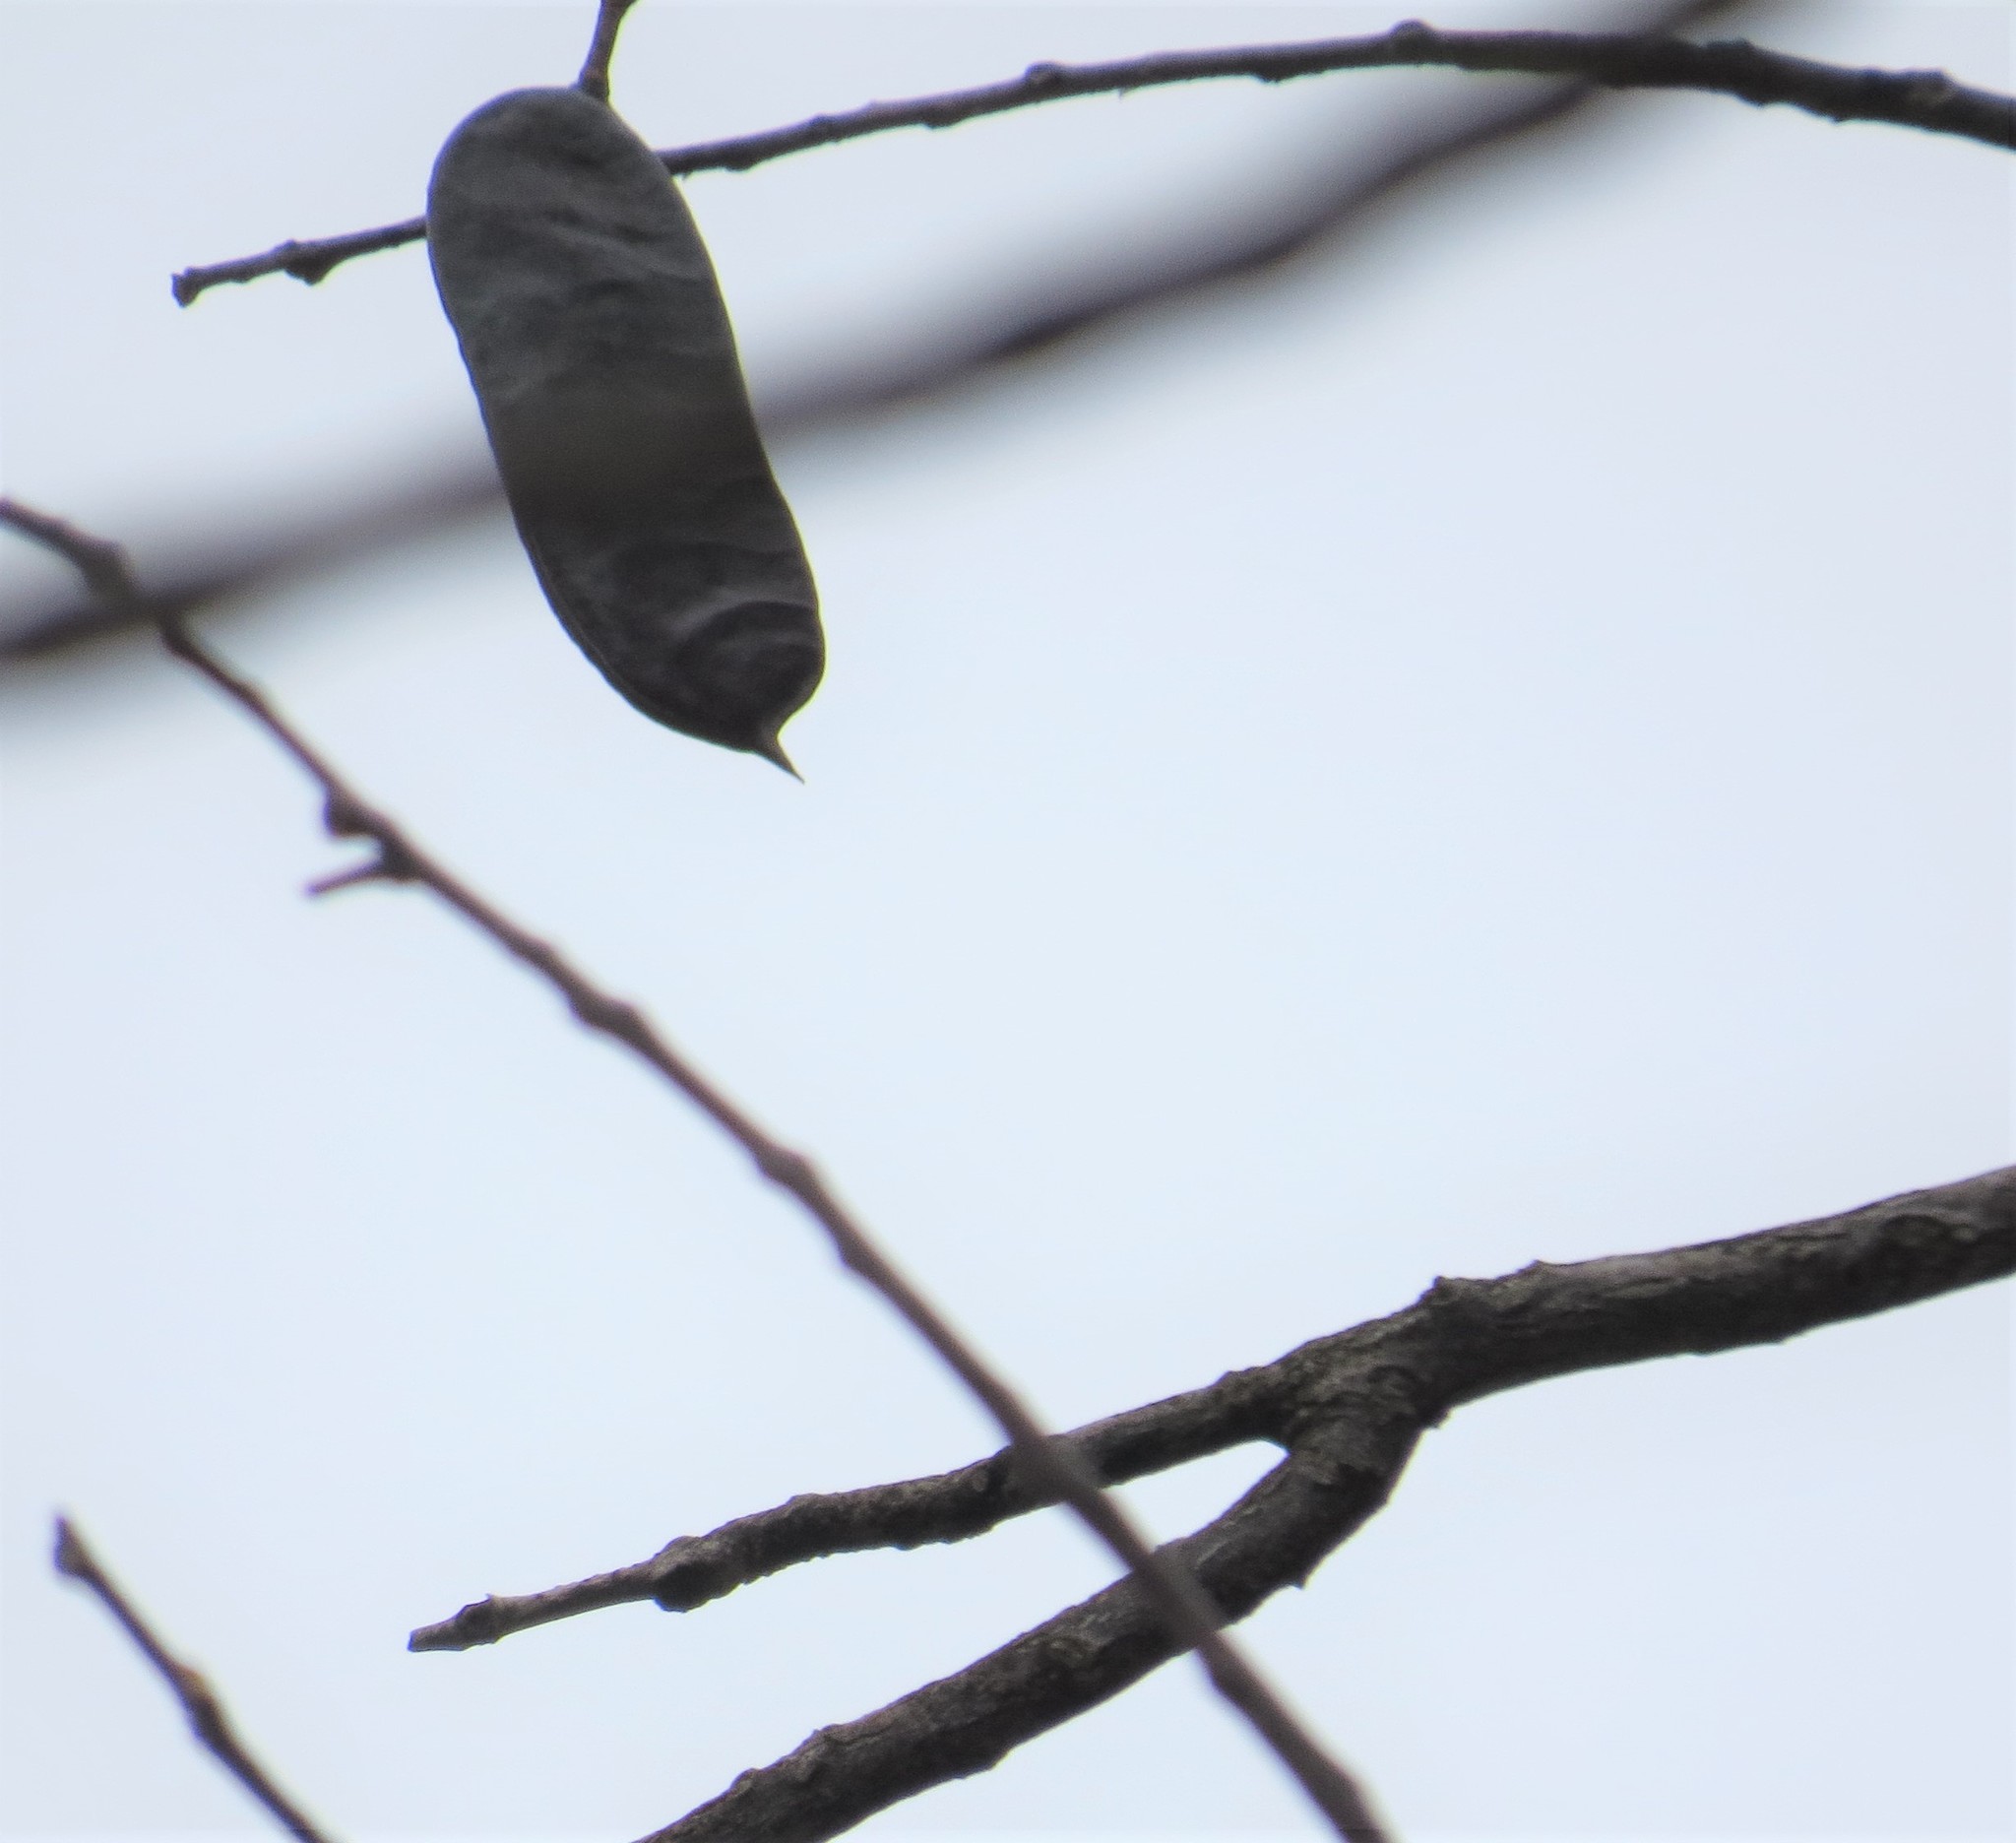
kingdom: Plantae
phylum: Tracheophyta
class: Magnoliopsida
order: Fabales
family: Fabaceae
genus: Gymnocladus
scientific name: Gymnocladus dioicus
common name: Kentucky coffee-tree
